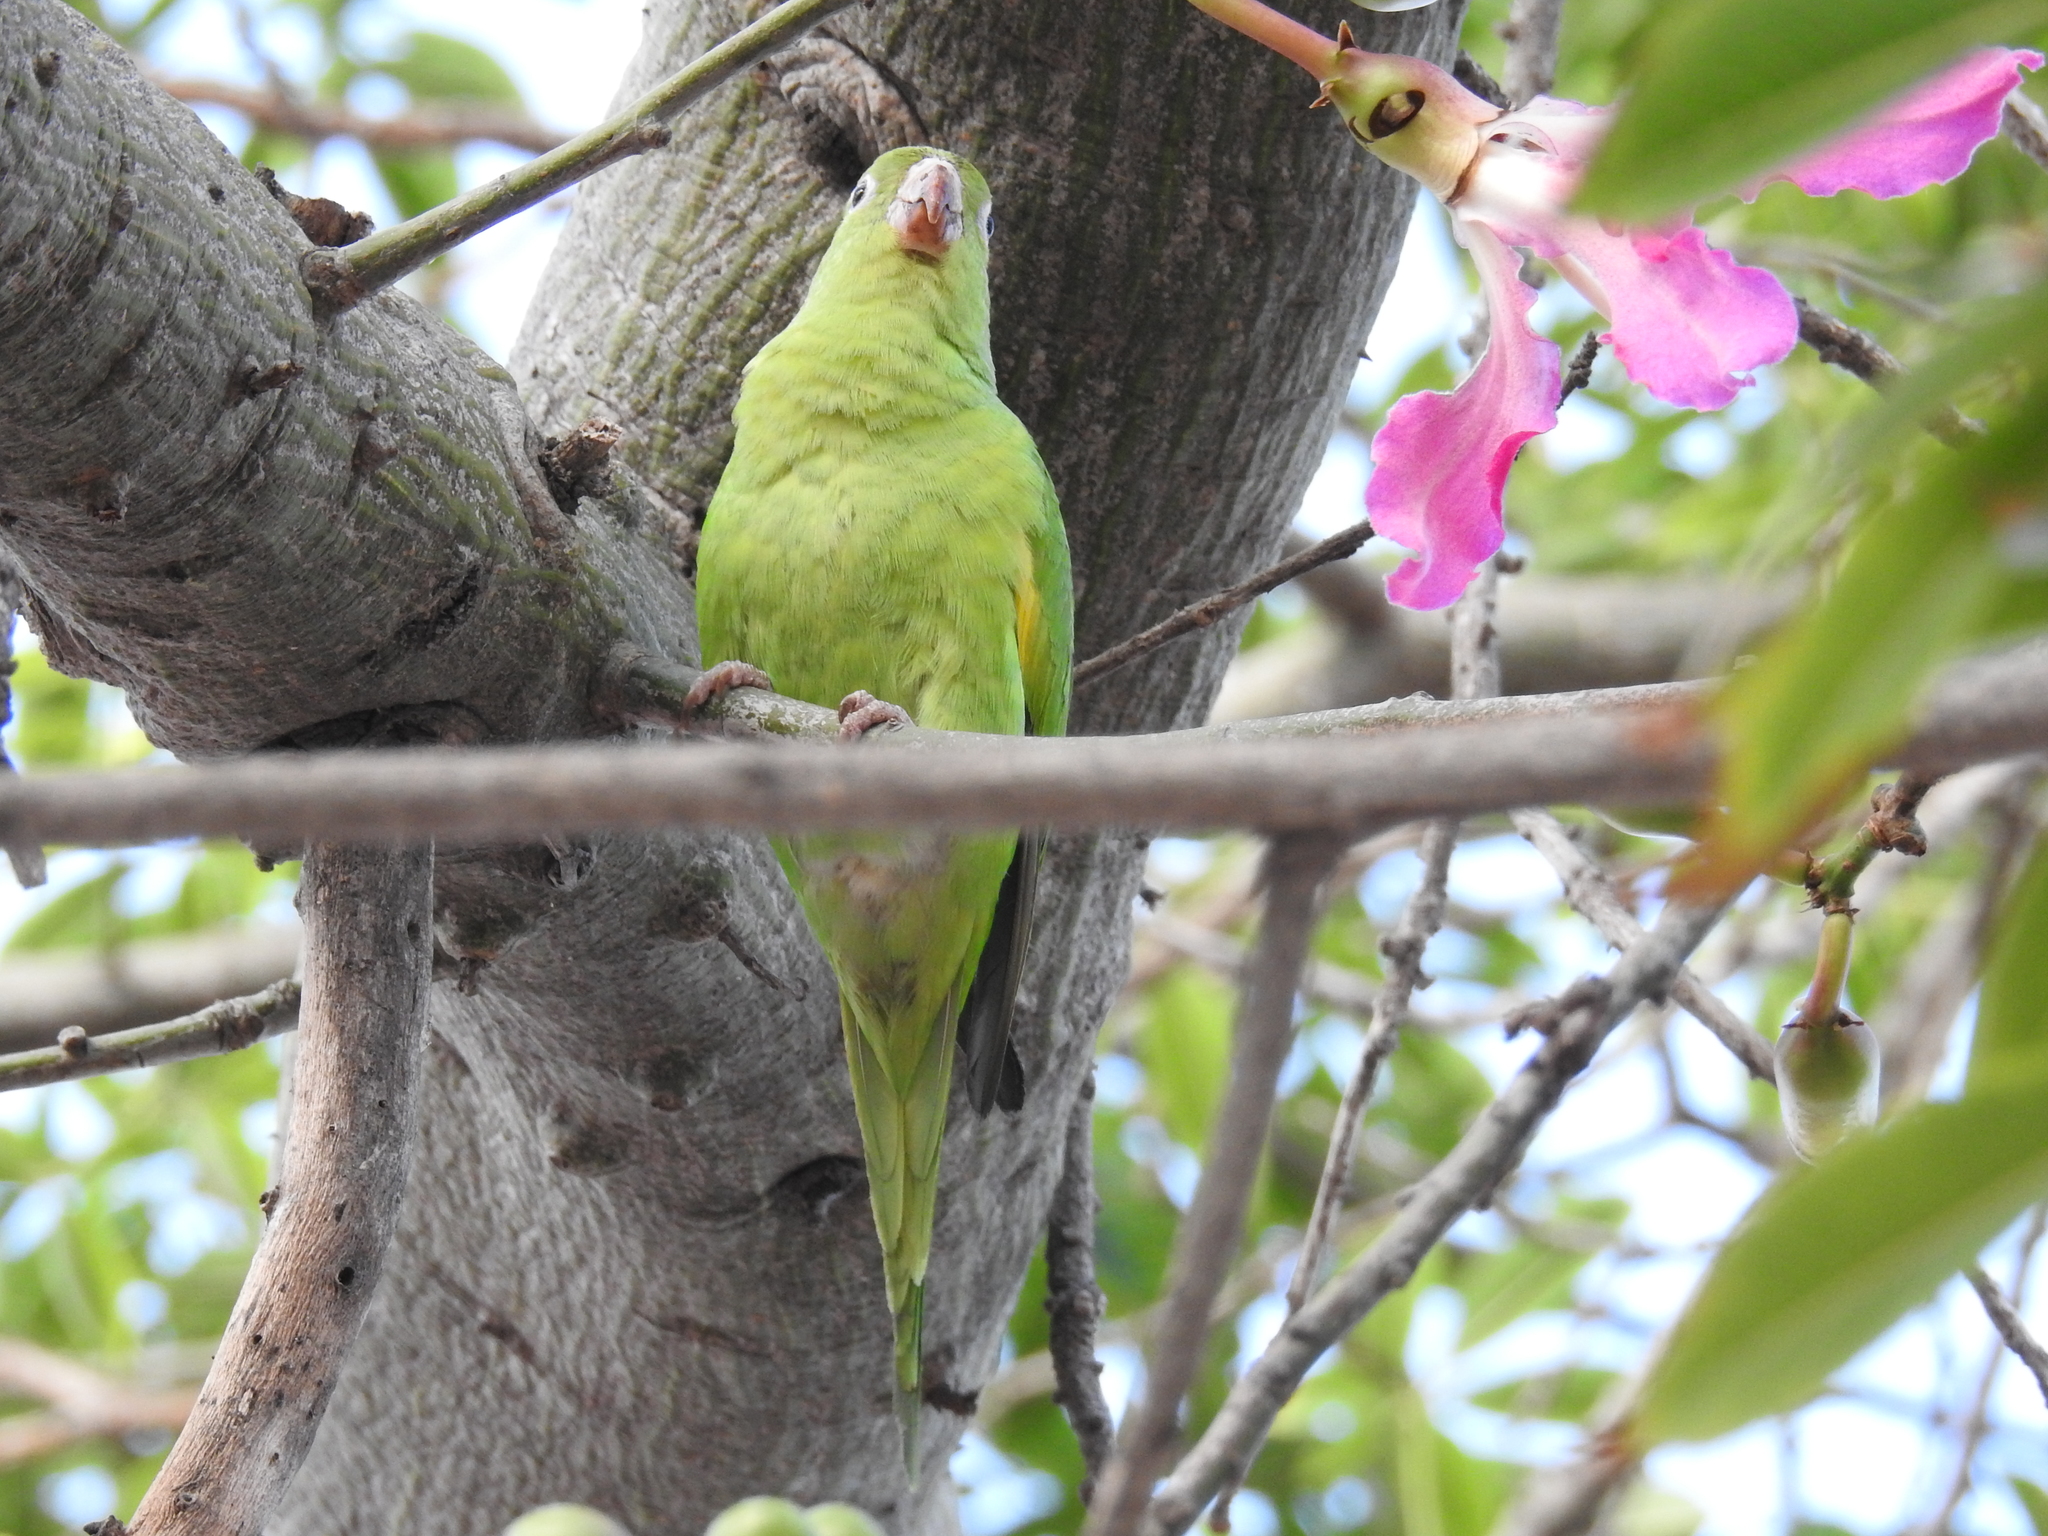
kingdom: Animalia
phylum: Chordata
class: Aves
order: Psittaciformes
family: Psittacidae
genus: Brotogeris
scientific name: Brotogeris chiriri
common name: Yellow-chevroned parakeet
